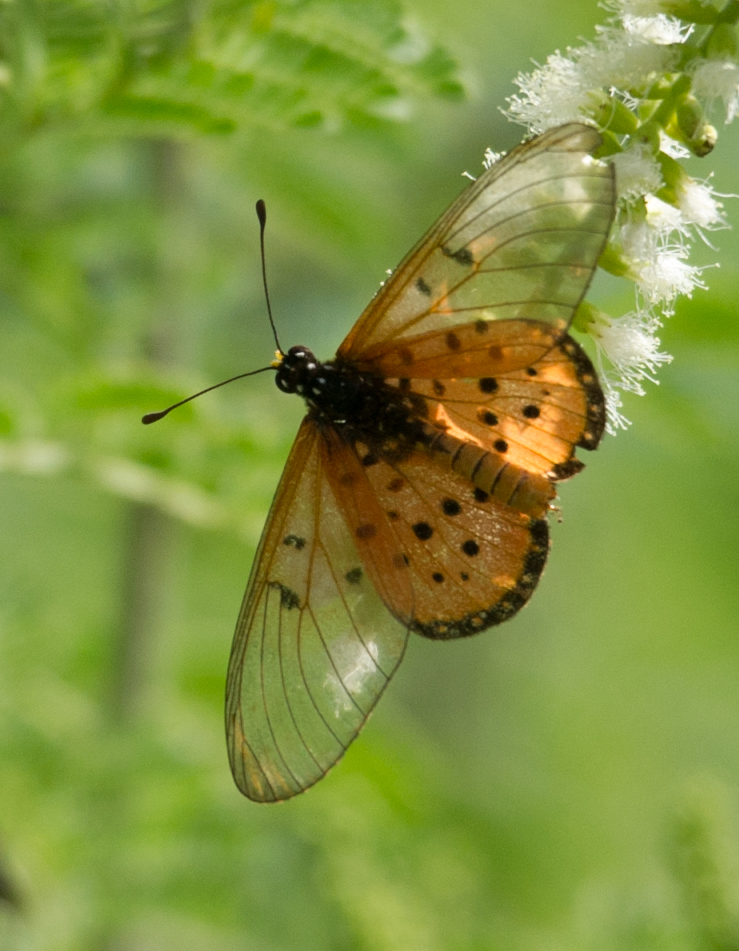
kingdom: Animalia
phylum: Arthropoda
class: Insecta
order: Lepidoptera
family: Nymphalidae
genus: Acraea
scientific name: Acraea neobule
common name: Dancing acraea
